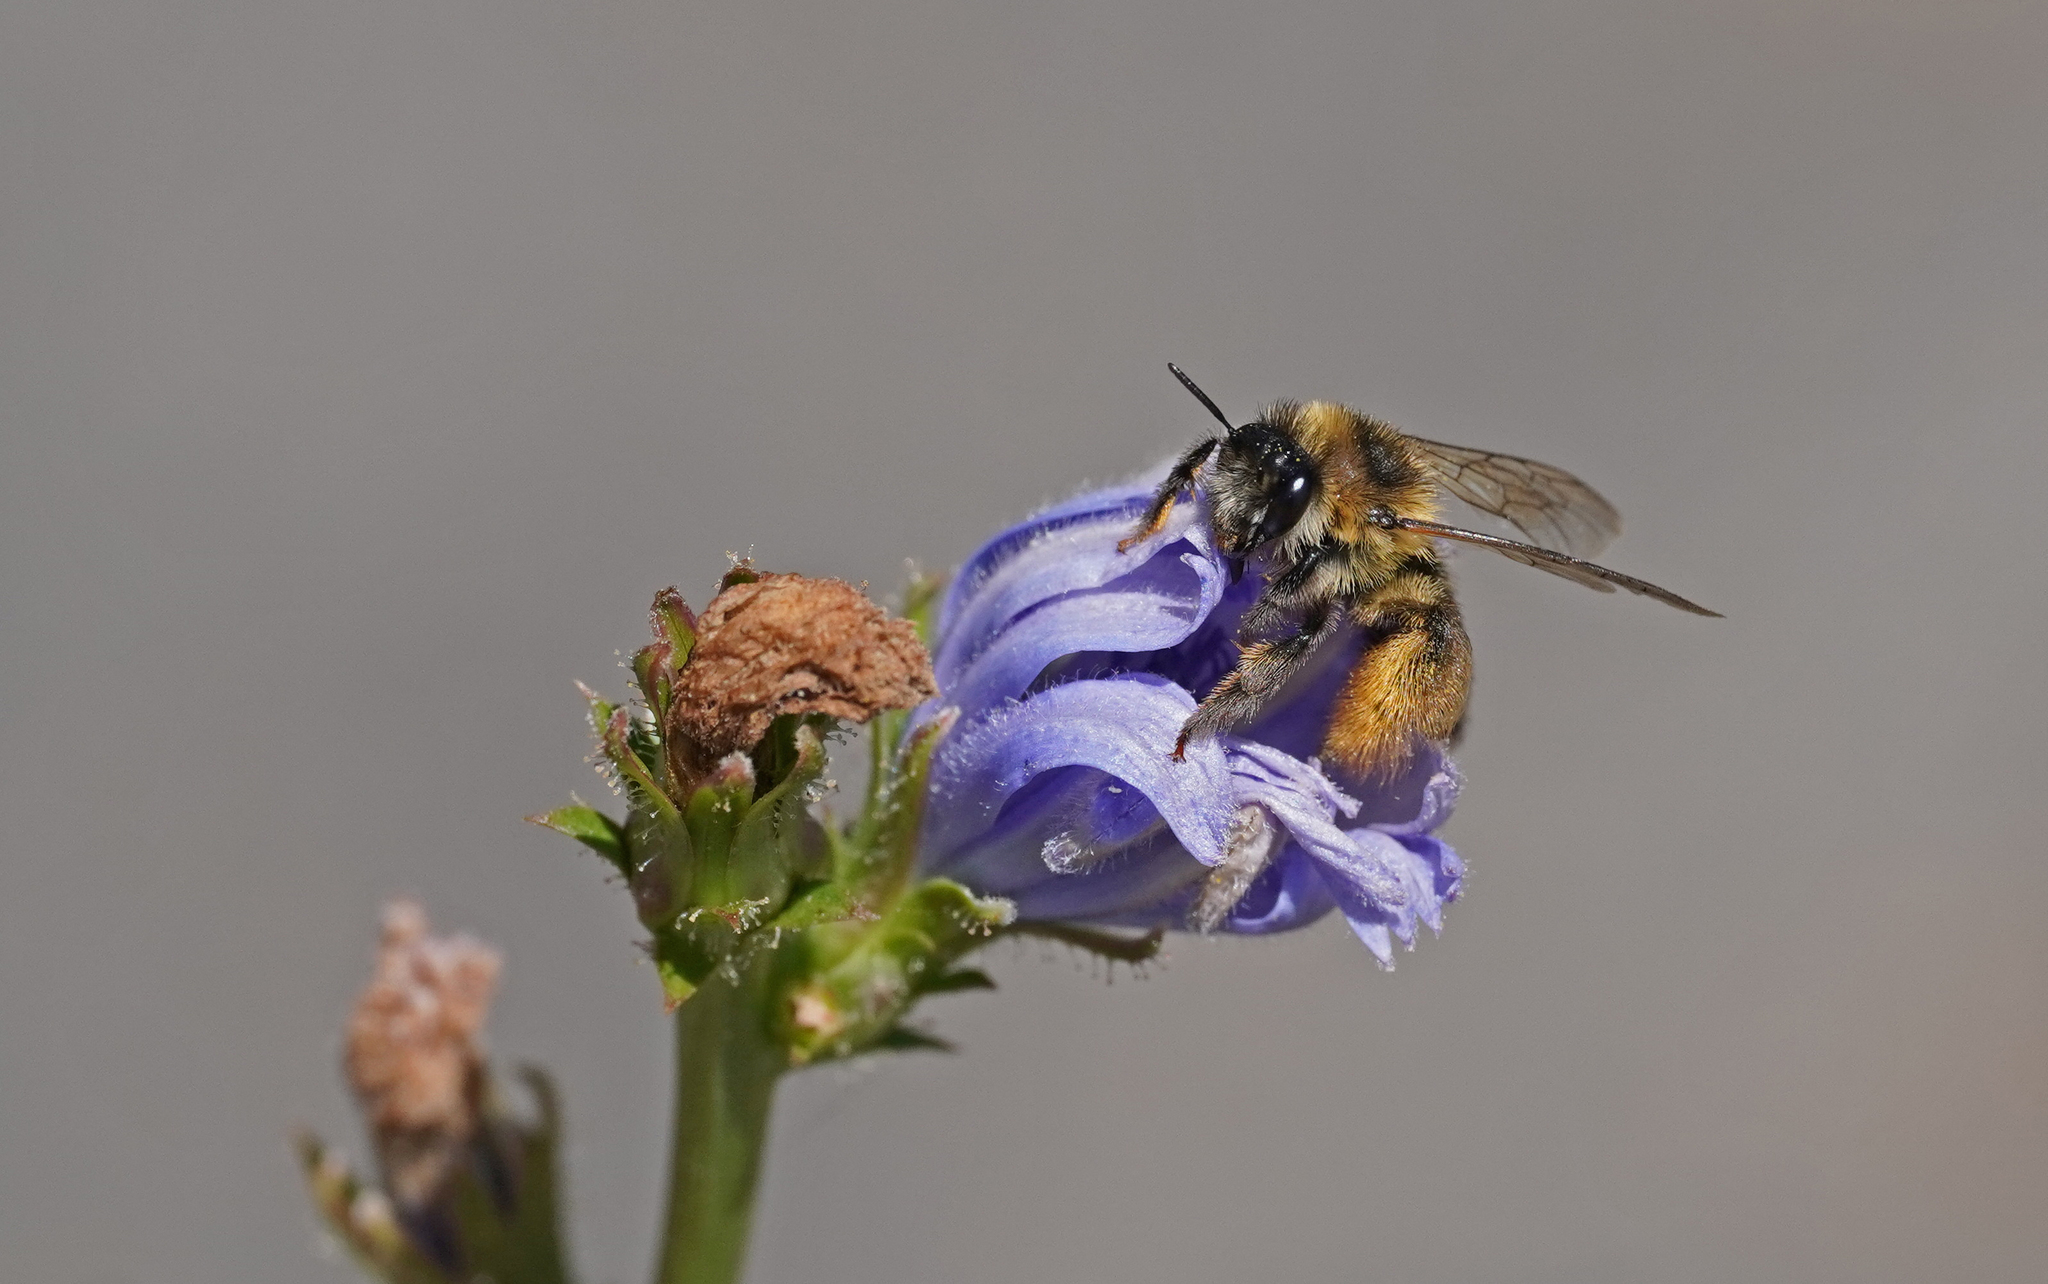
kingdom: Animalia
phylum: Arthropoda
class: Insecta
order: Hymenoptera
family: Melittidae
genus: Dasypoda
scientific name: Dasypoda hirtipes
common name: Pantaloon bee
